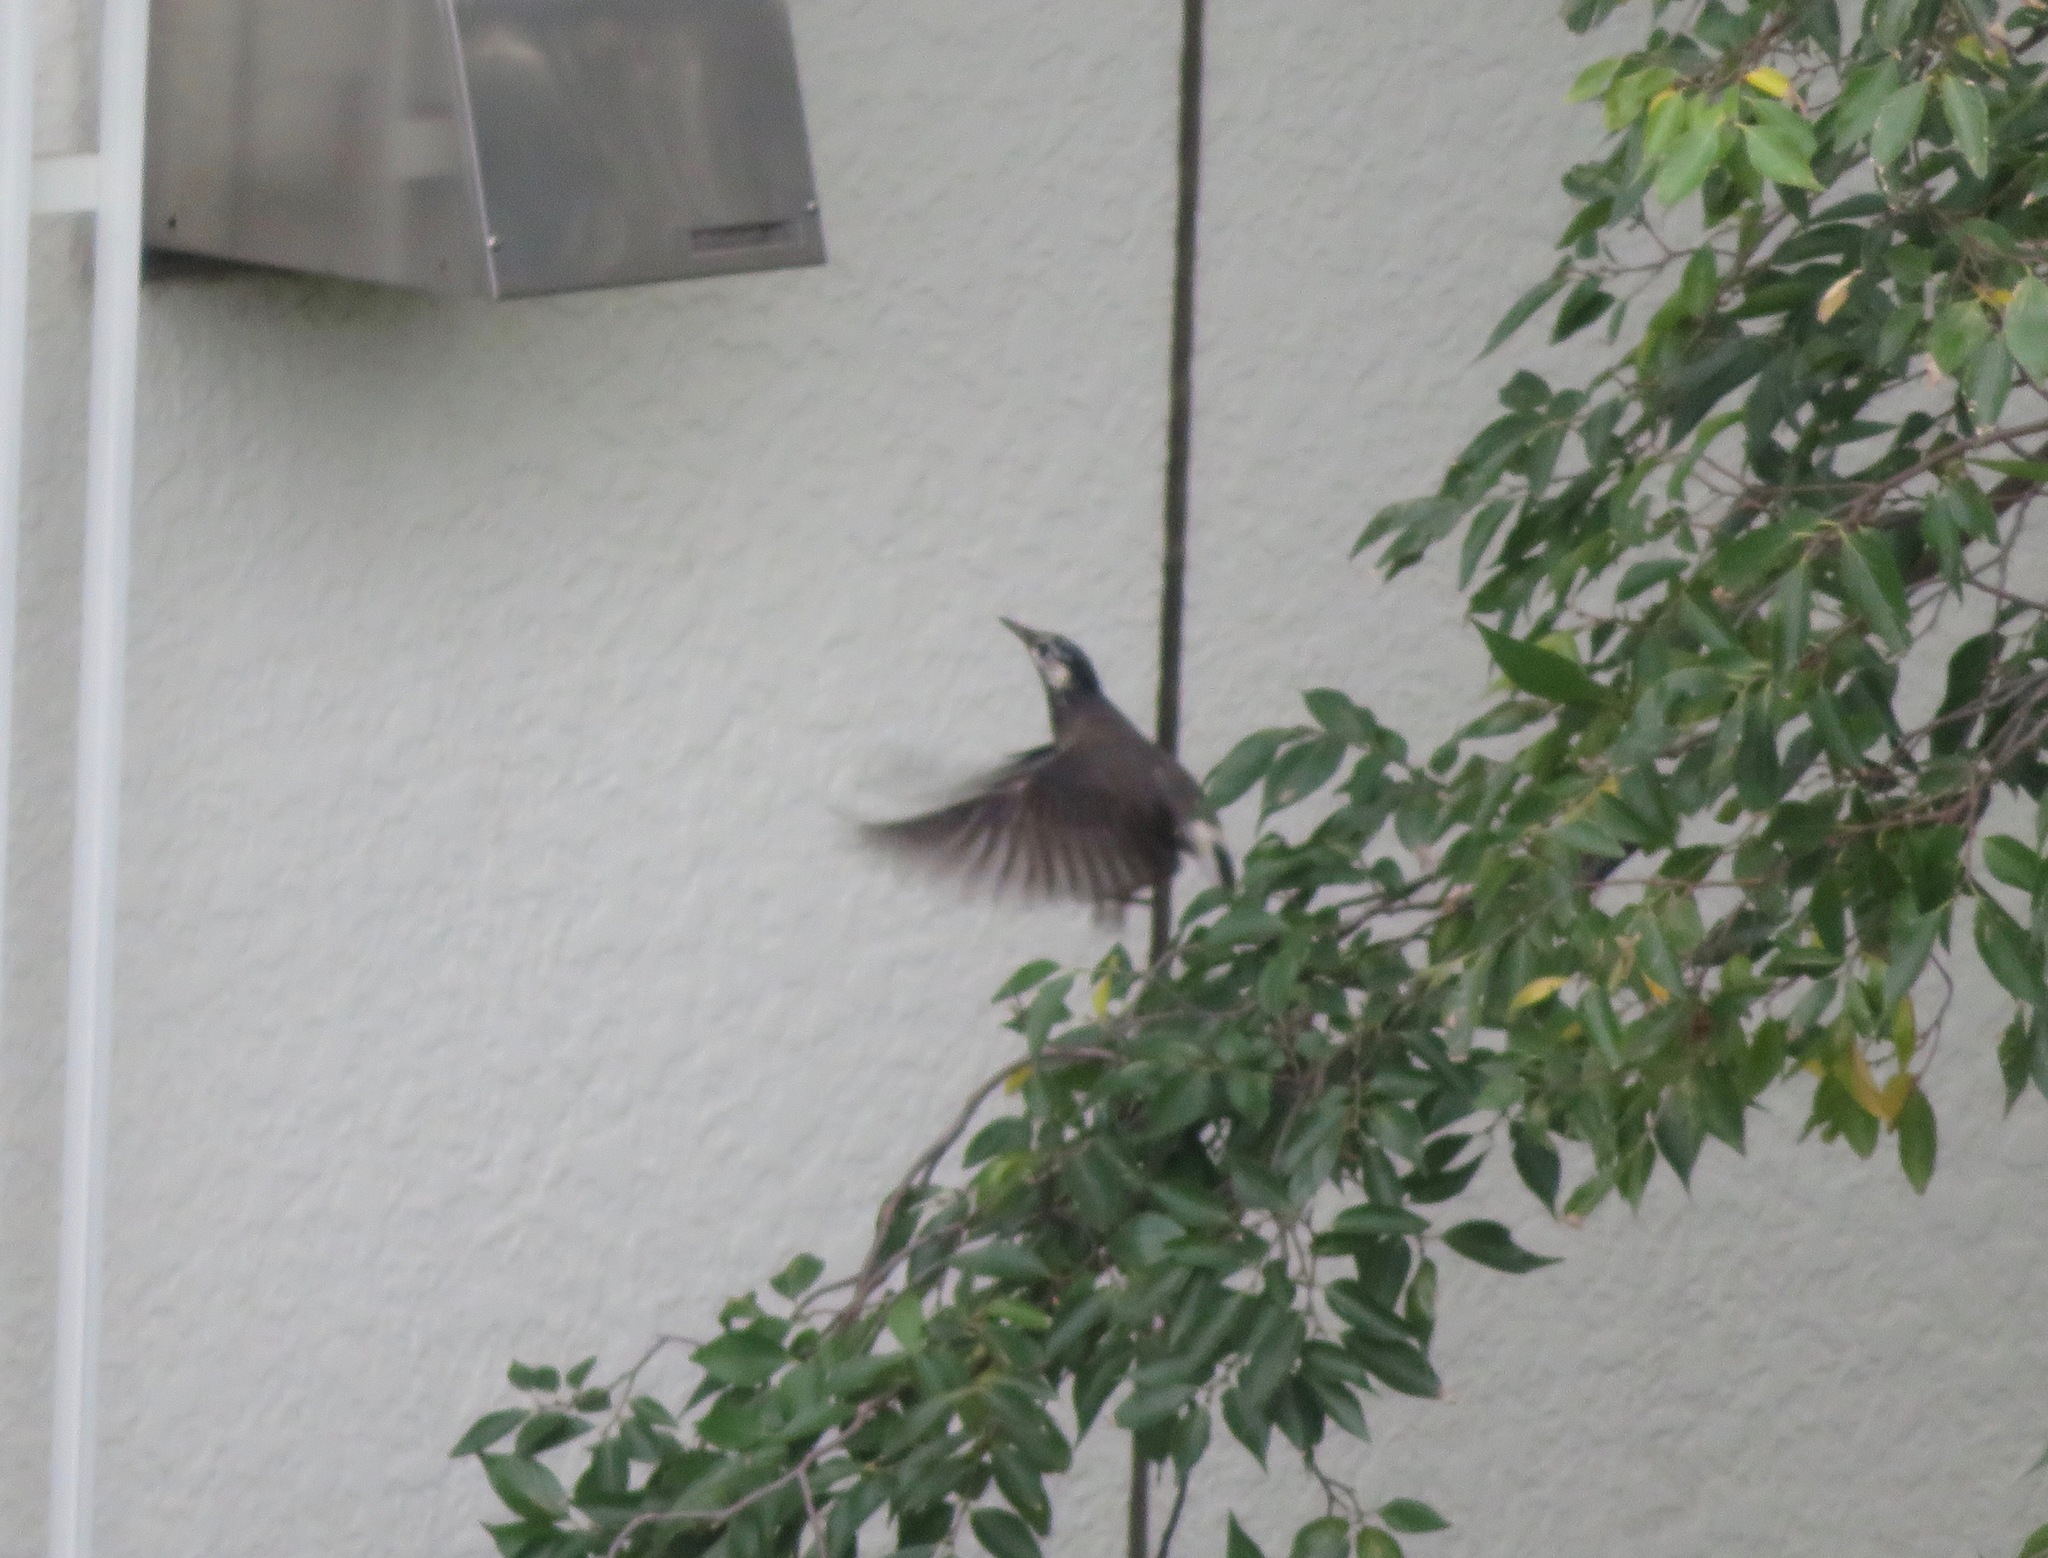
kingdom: Animalia
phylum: Chordata
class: Aves
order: Passeriformes
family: Sturnidae
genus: Spodiopsar
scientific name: Spodiopsar cineraceus
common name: White-cheeked starling
